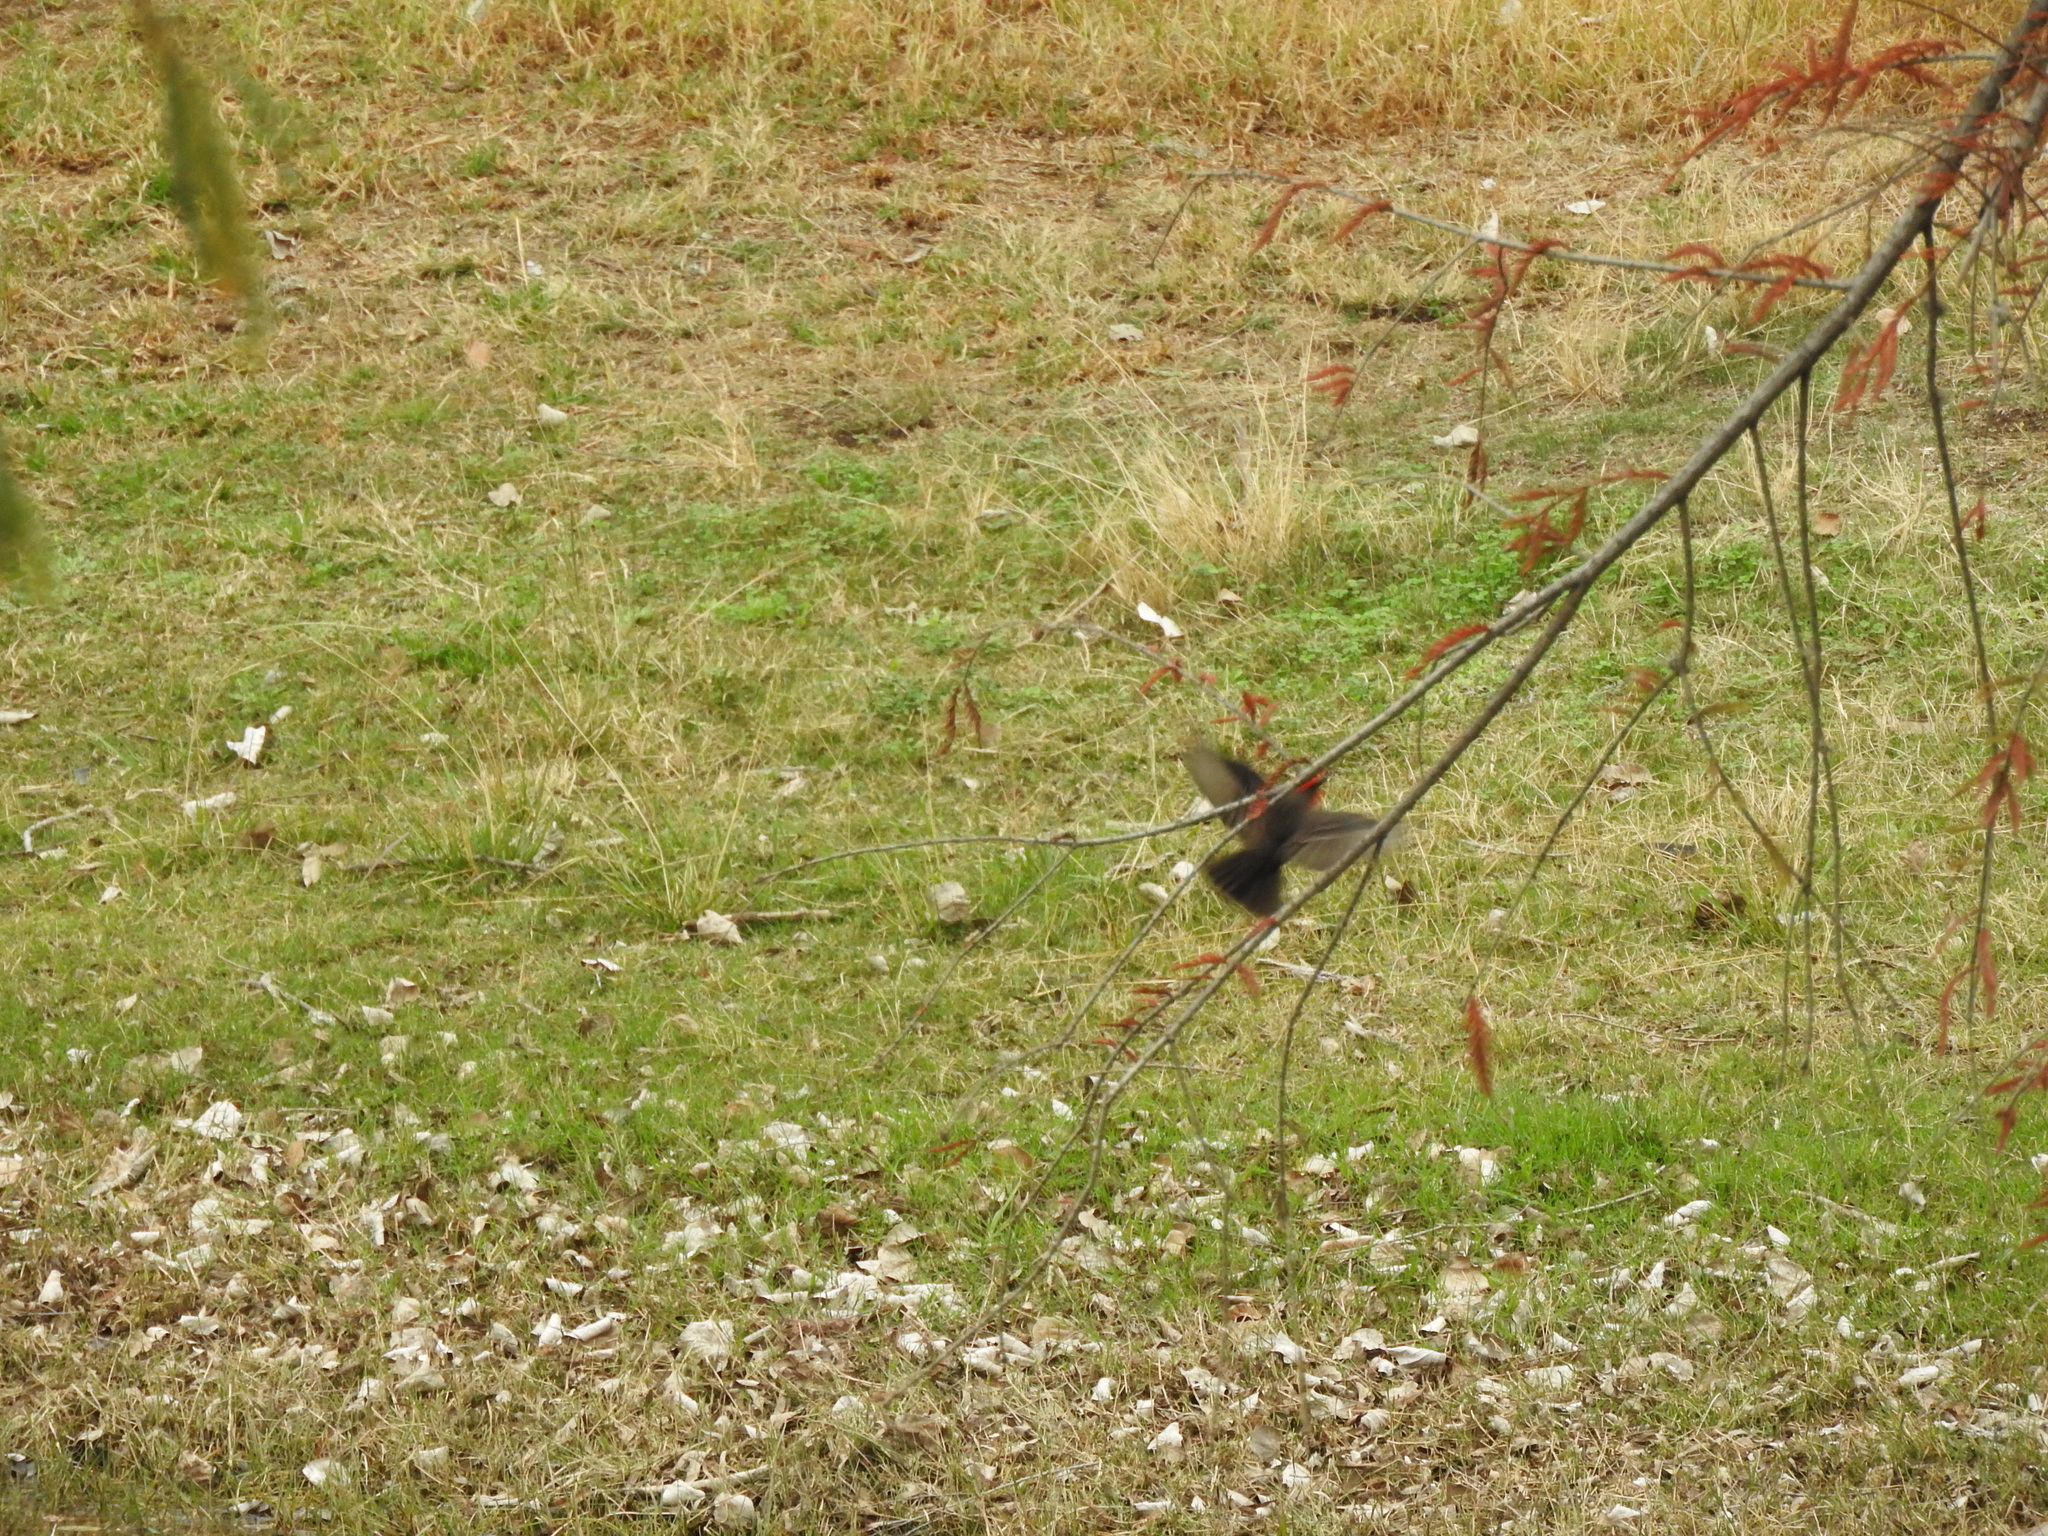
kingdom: Animalia
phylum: Chordata
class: Aves
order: Passeriformes
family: Tyrannidae
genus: Pyrocephalus
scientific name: Pyrocephalus rubinus
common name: Vermilion flycatcher
